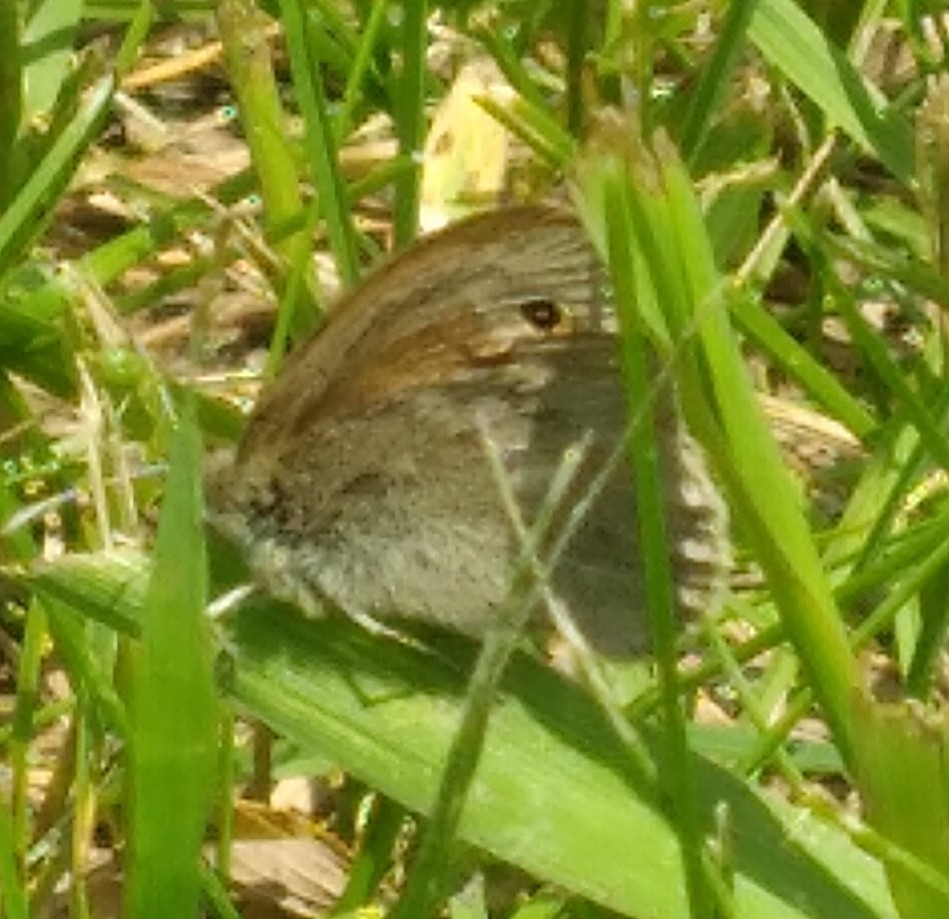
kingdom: Animalia
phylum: Arthropoda
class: Insecta
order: Lepidoptera
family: Nymphalidae
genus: Coenonympha
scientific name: Coenonympha california
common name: Common ringlet
